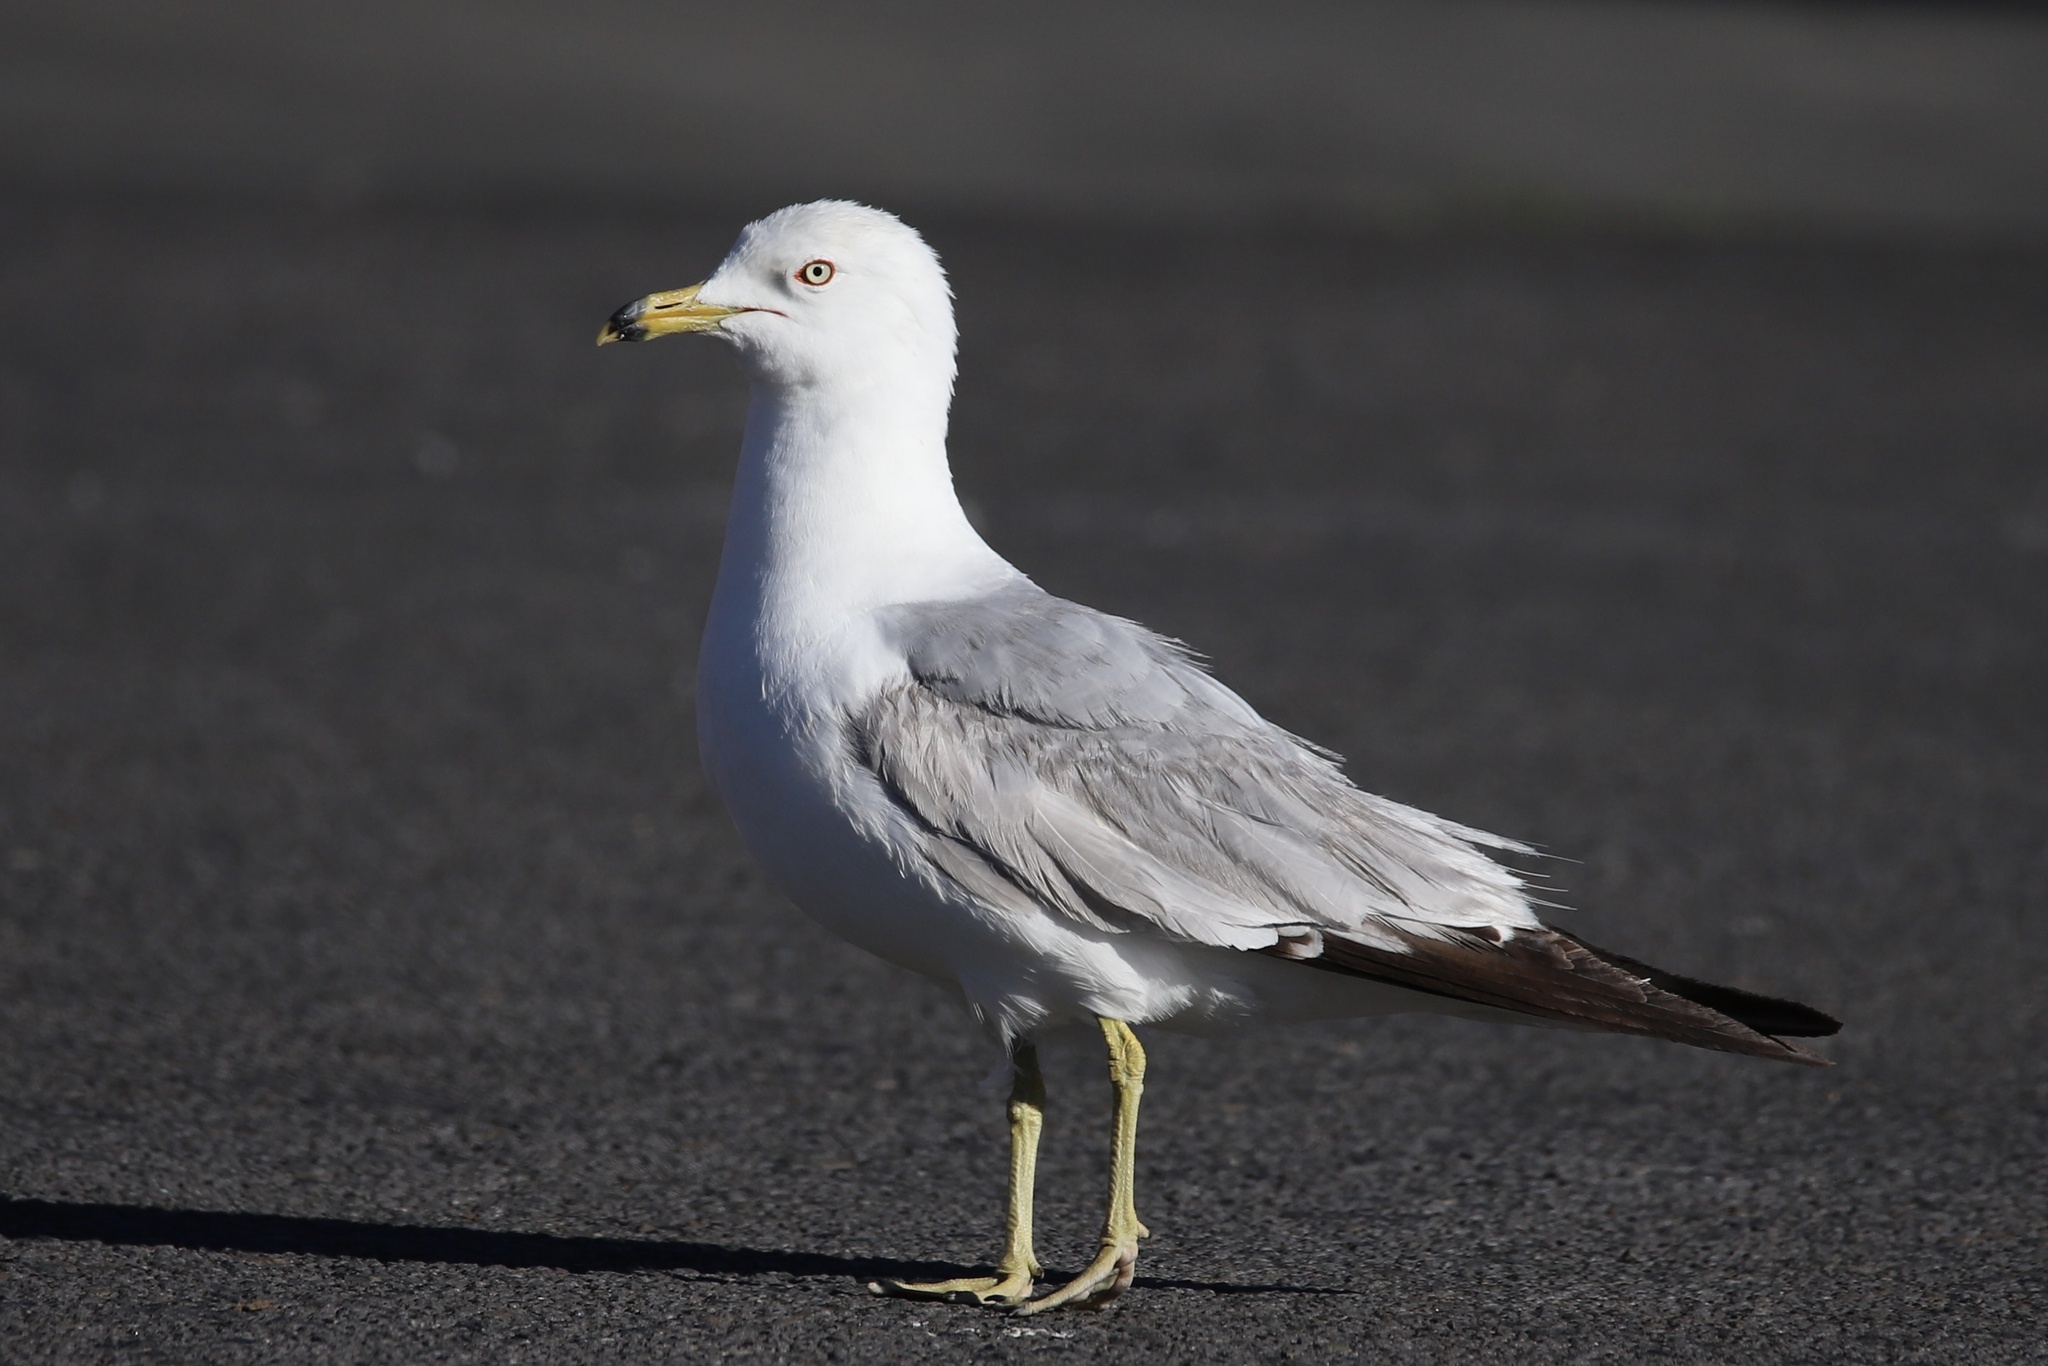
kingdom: Animalia
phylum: Chordata
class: Aves
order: Charadriiformes
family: Laridae
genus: Larus
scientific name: Larus delawarensis
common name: Ring-billed gull
